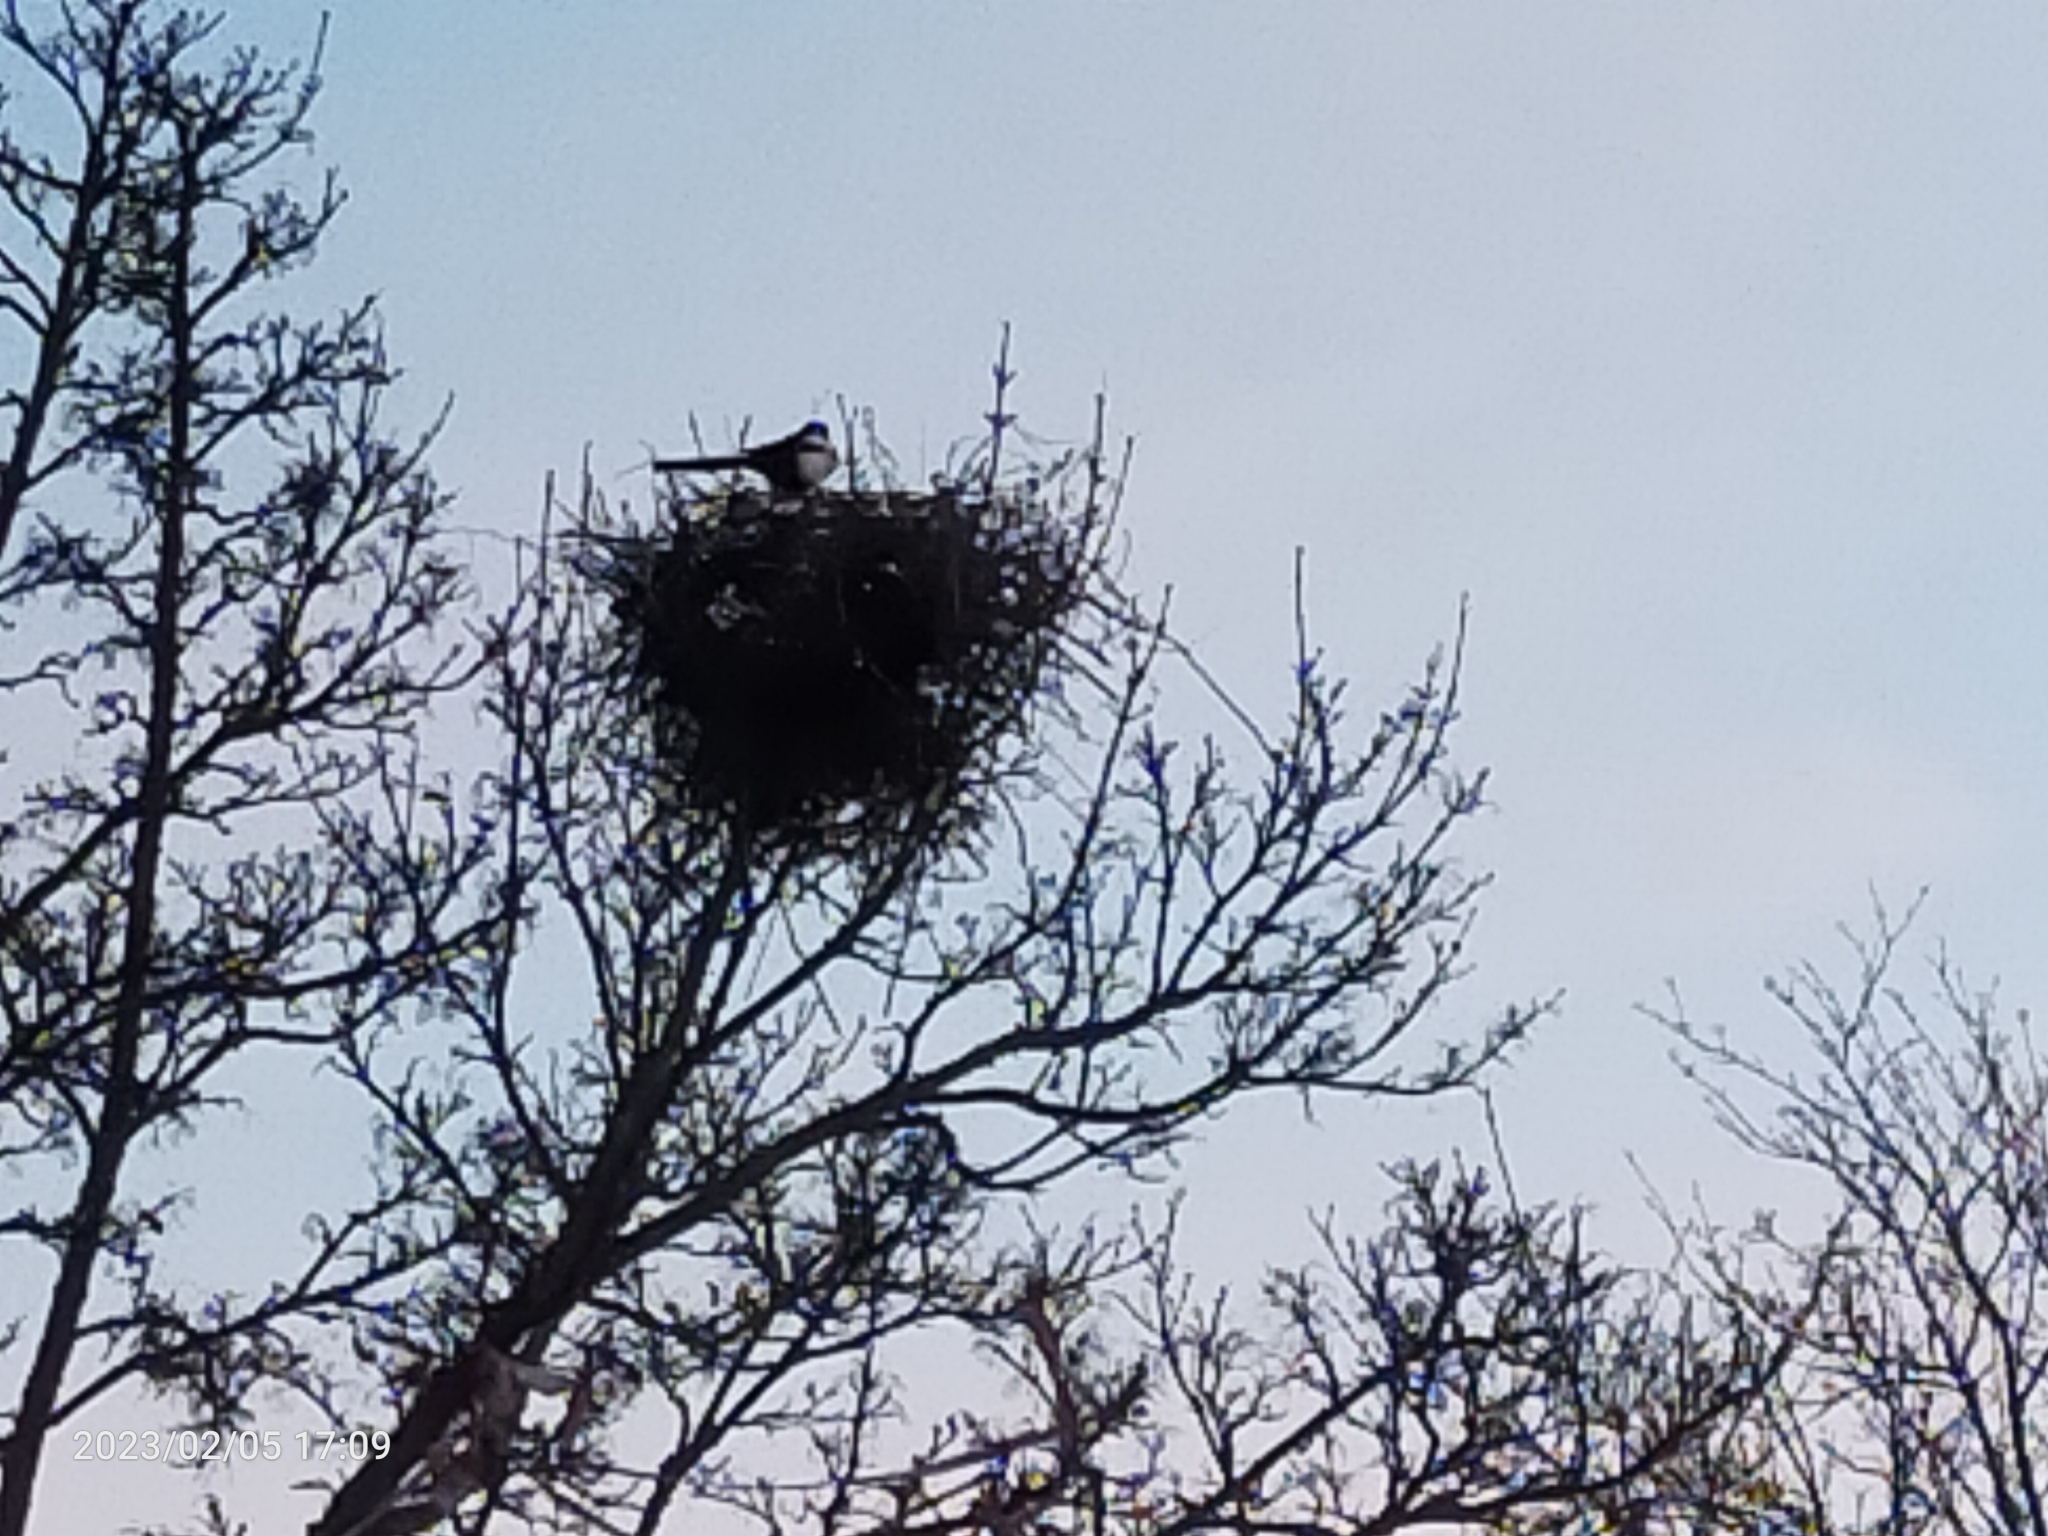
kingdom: Animalia
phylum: Chordata
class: Aves
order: Passeriformes
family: Corvidae
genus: Pica
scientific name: Pica pica
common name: Eurasian magpie
